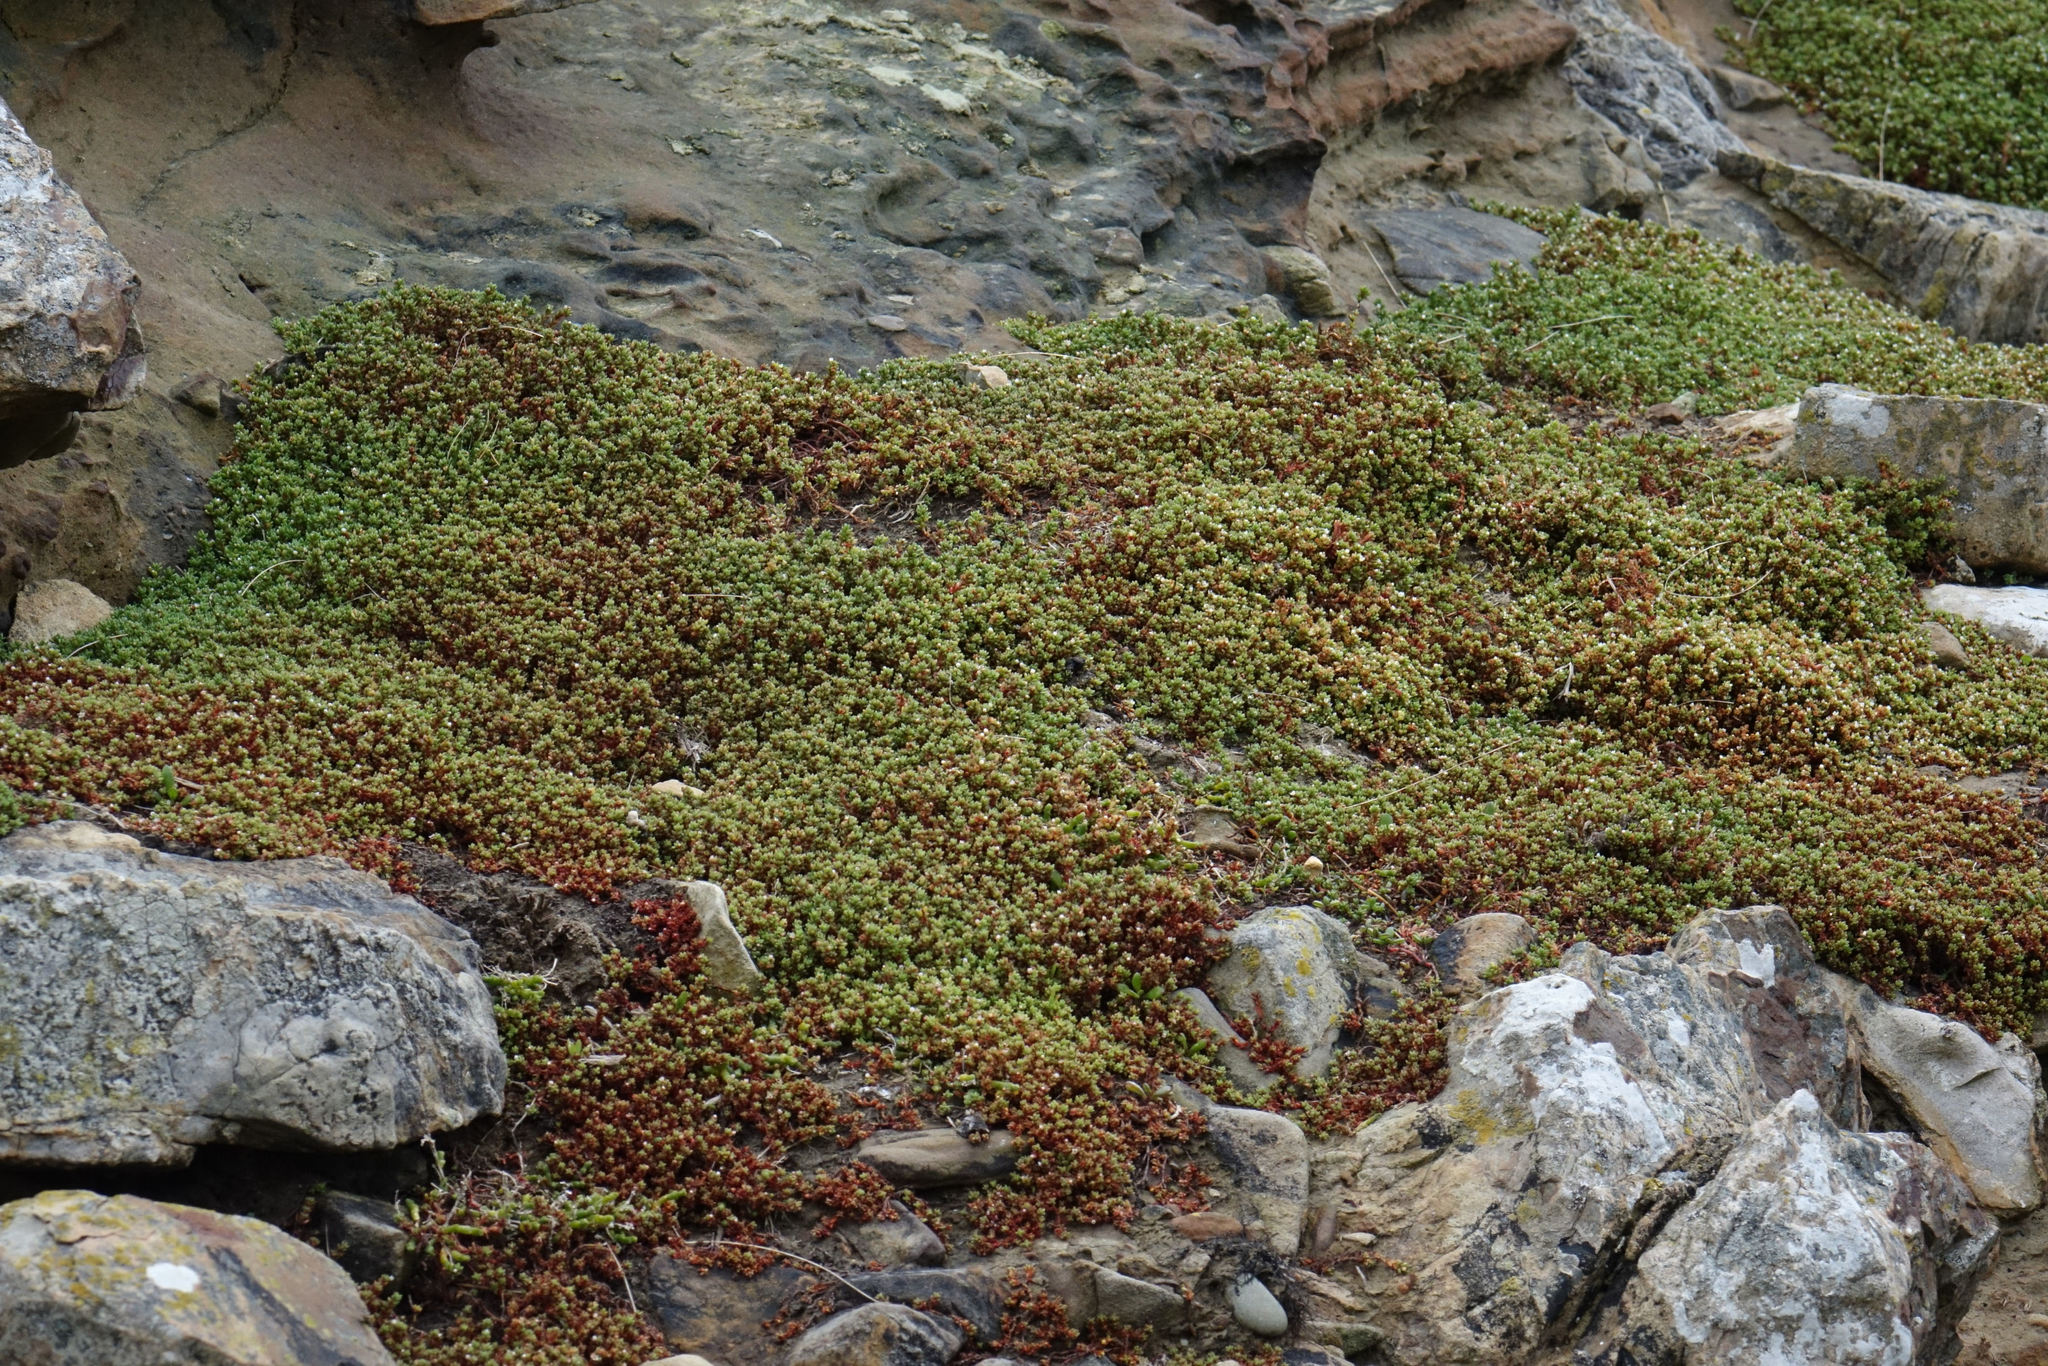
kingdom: Plantae
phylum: Tracheophyta
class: Magnoliopsida
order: Saxifragales
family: Crassulaceae
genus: Crassula
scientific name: Crassula moschata
